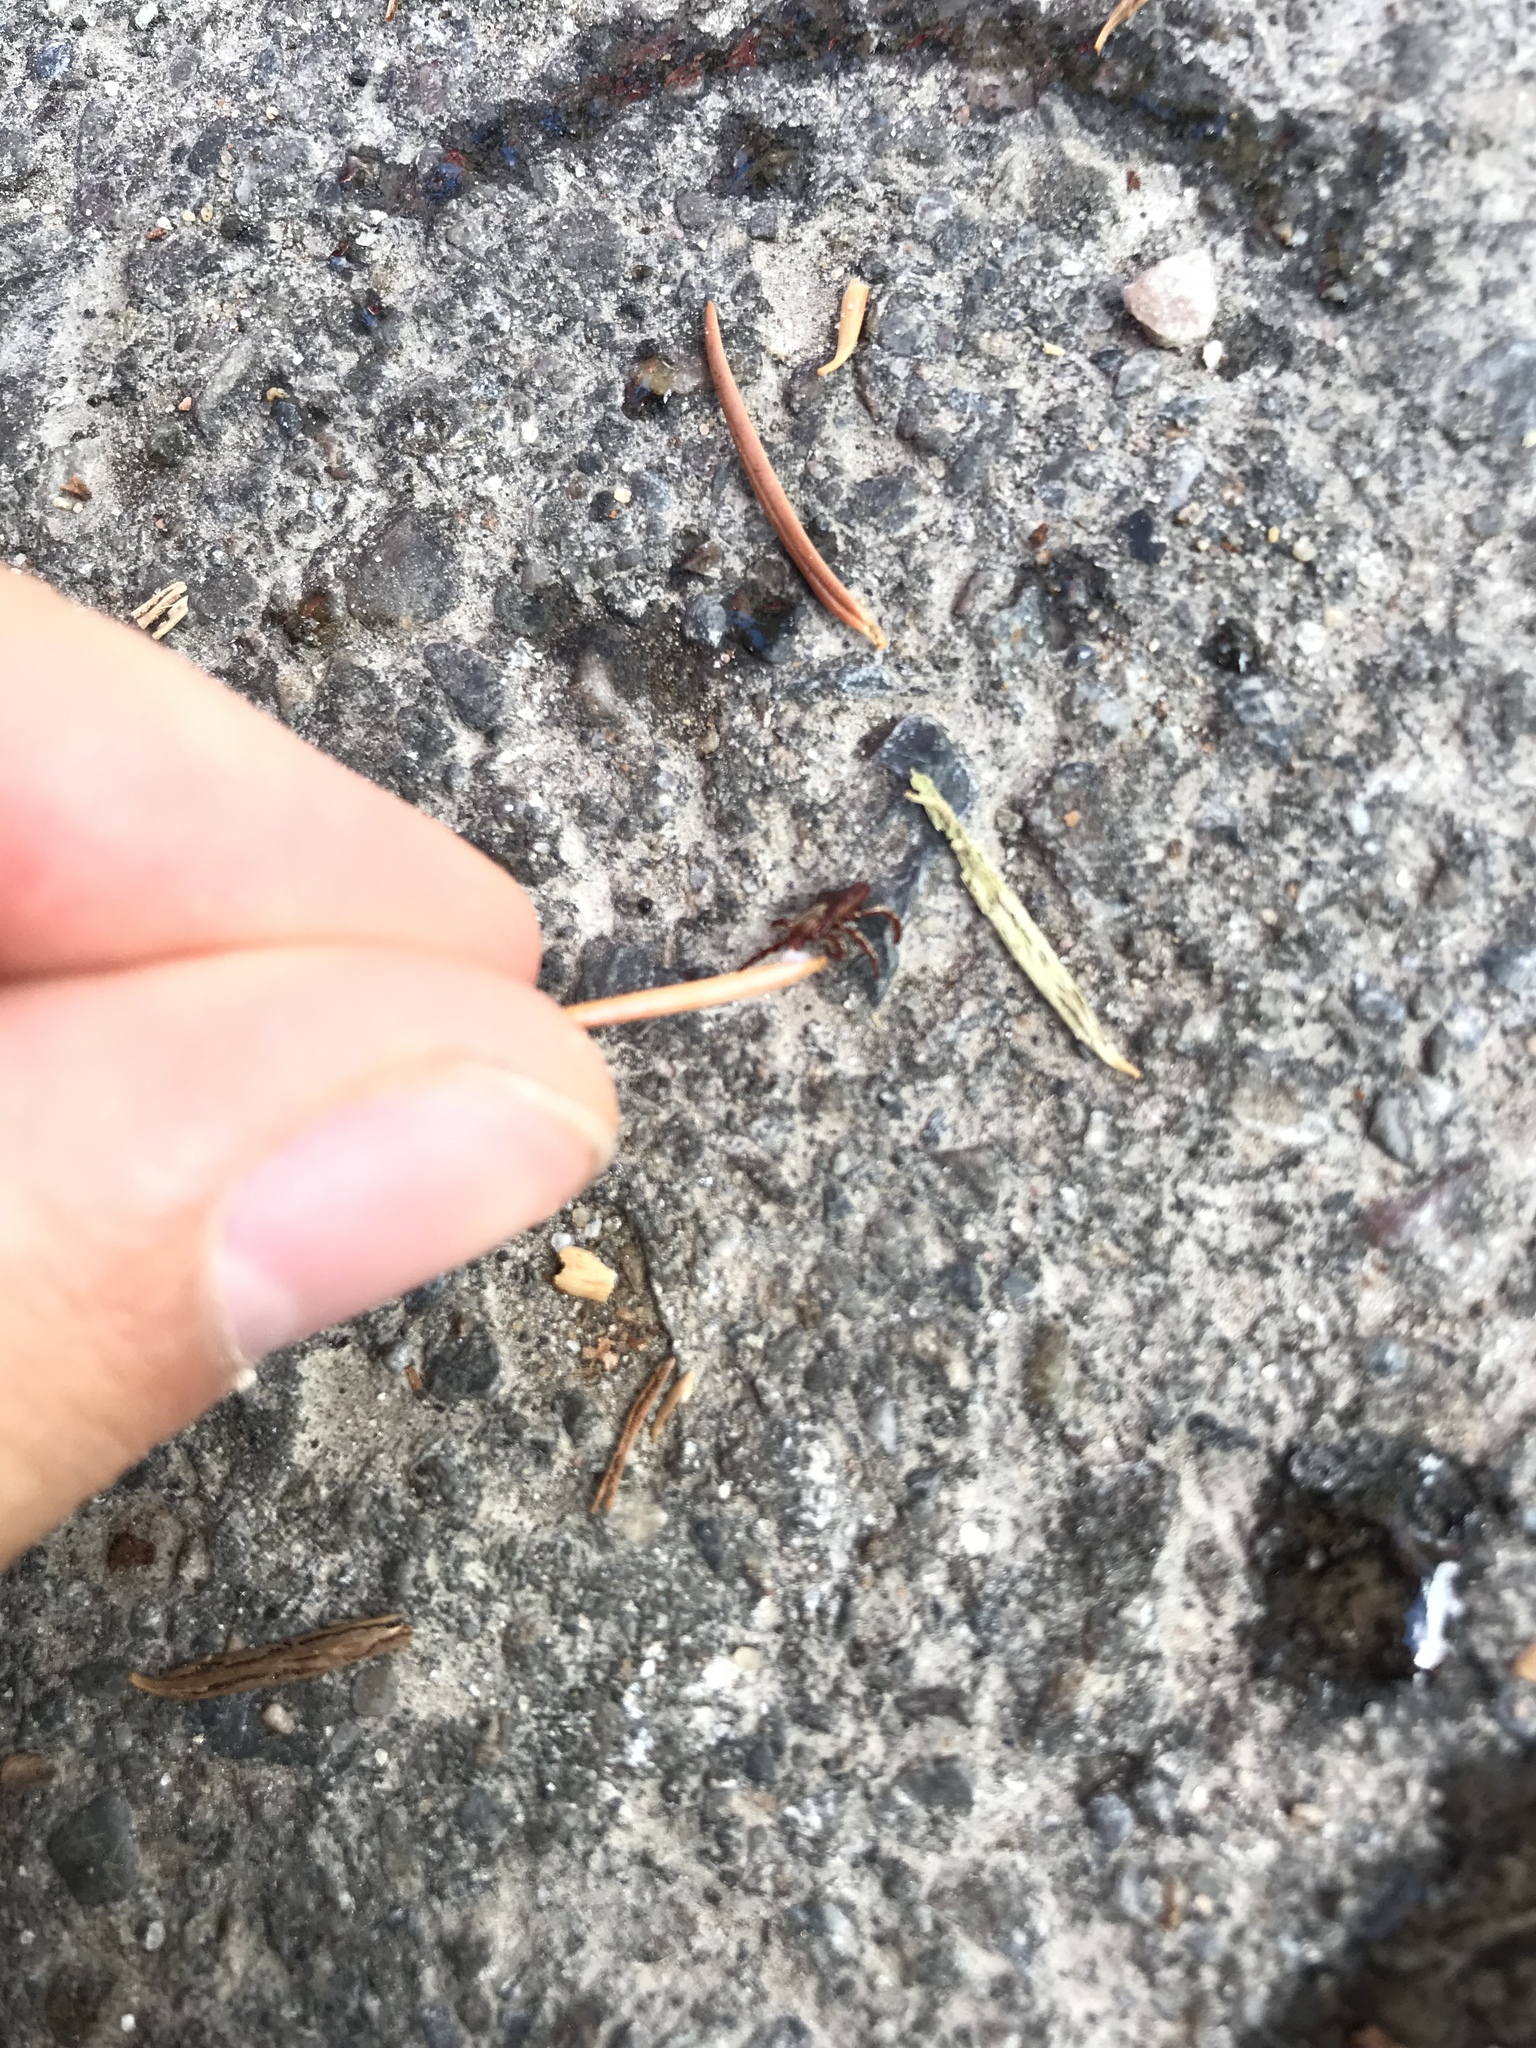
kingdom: Animalia
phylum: Arthropoda
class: Arachnida
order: Ixodida
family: Ixodidae
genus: Dermacentor
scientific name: Dermacentor andersoni
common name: Rocky mountain wood tick
